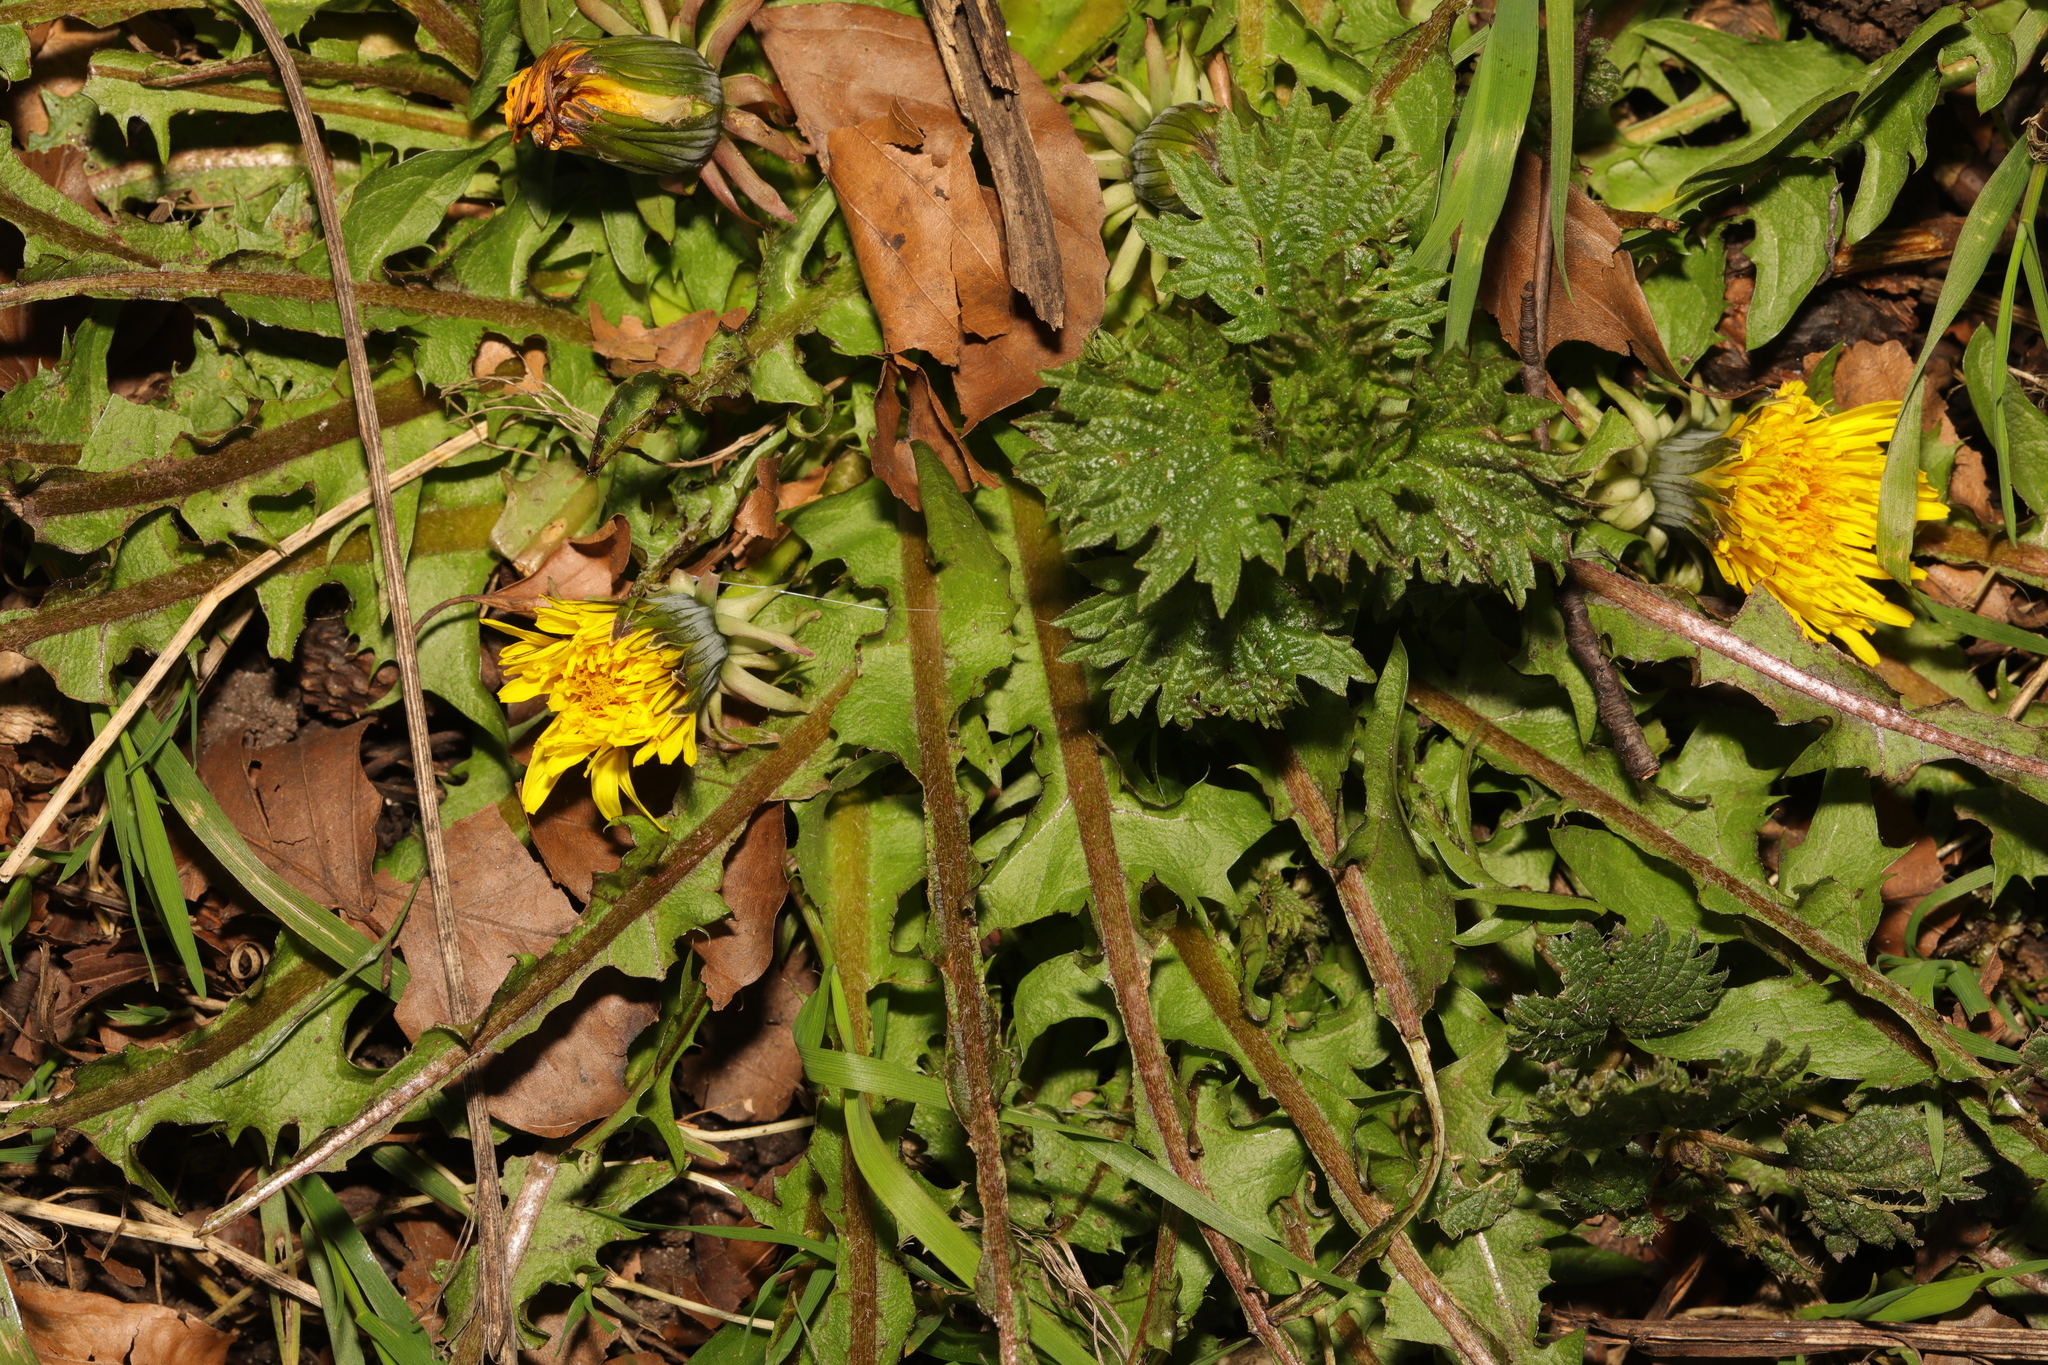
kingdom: Plantae
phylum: Tracheophyta
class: Magnoliopsida
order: Asterales
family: Asteraceae
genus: Taraxacum
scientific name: Taraxacum officinale
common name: Common dandelion
